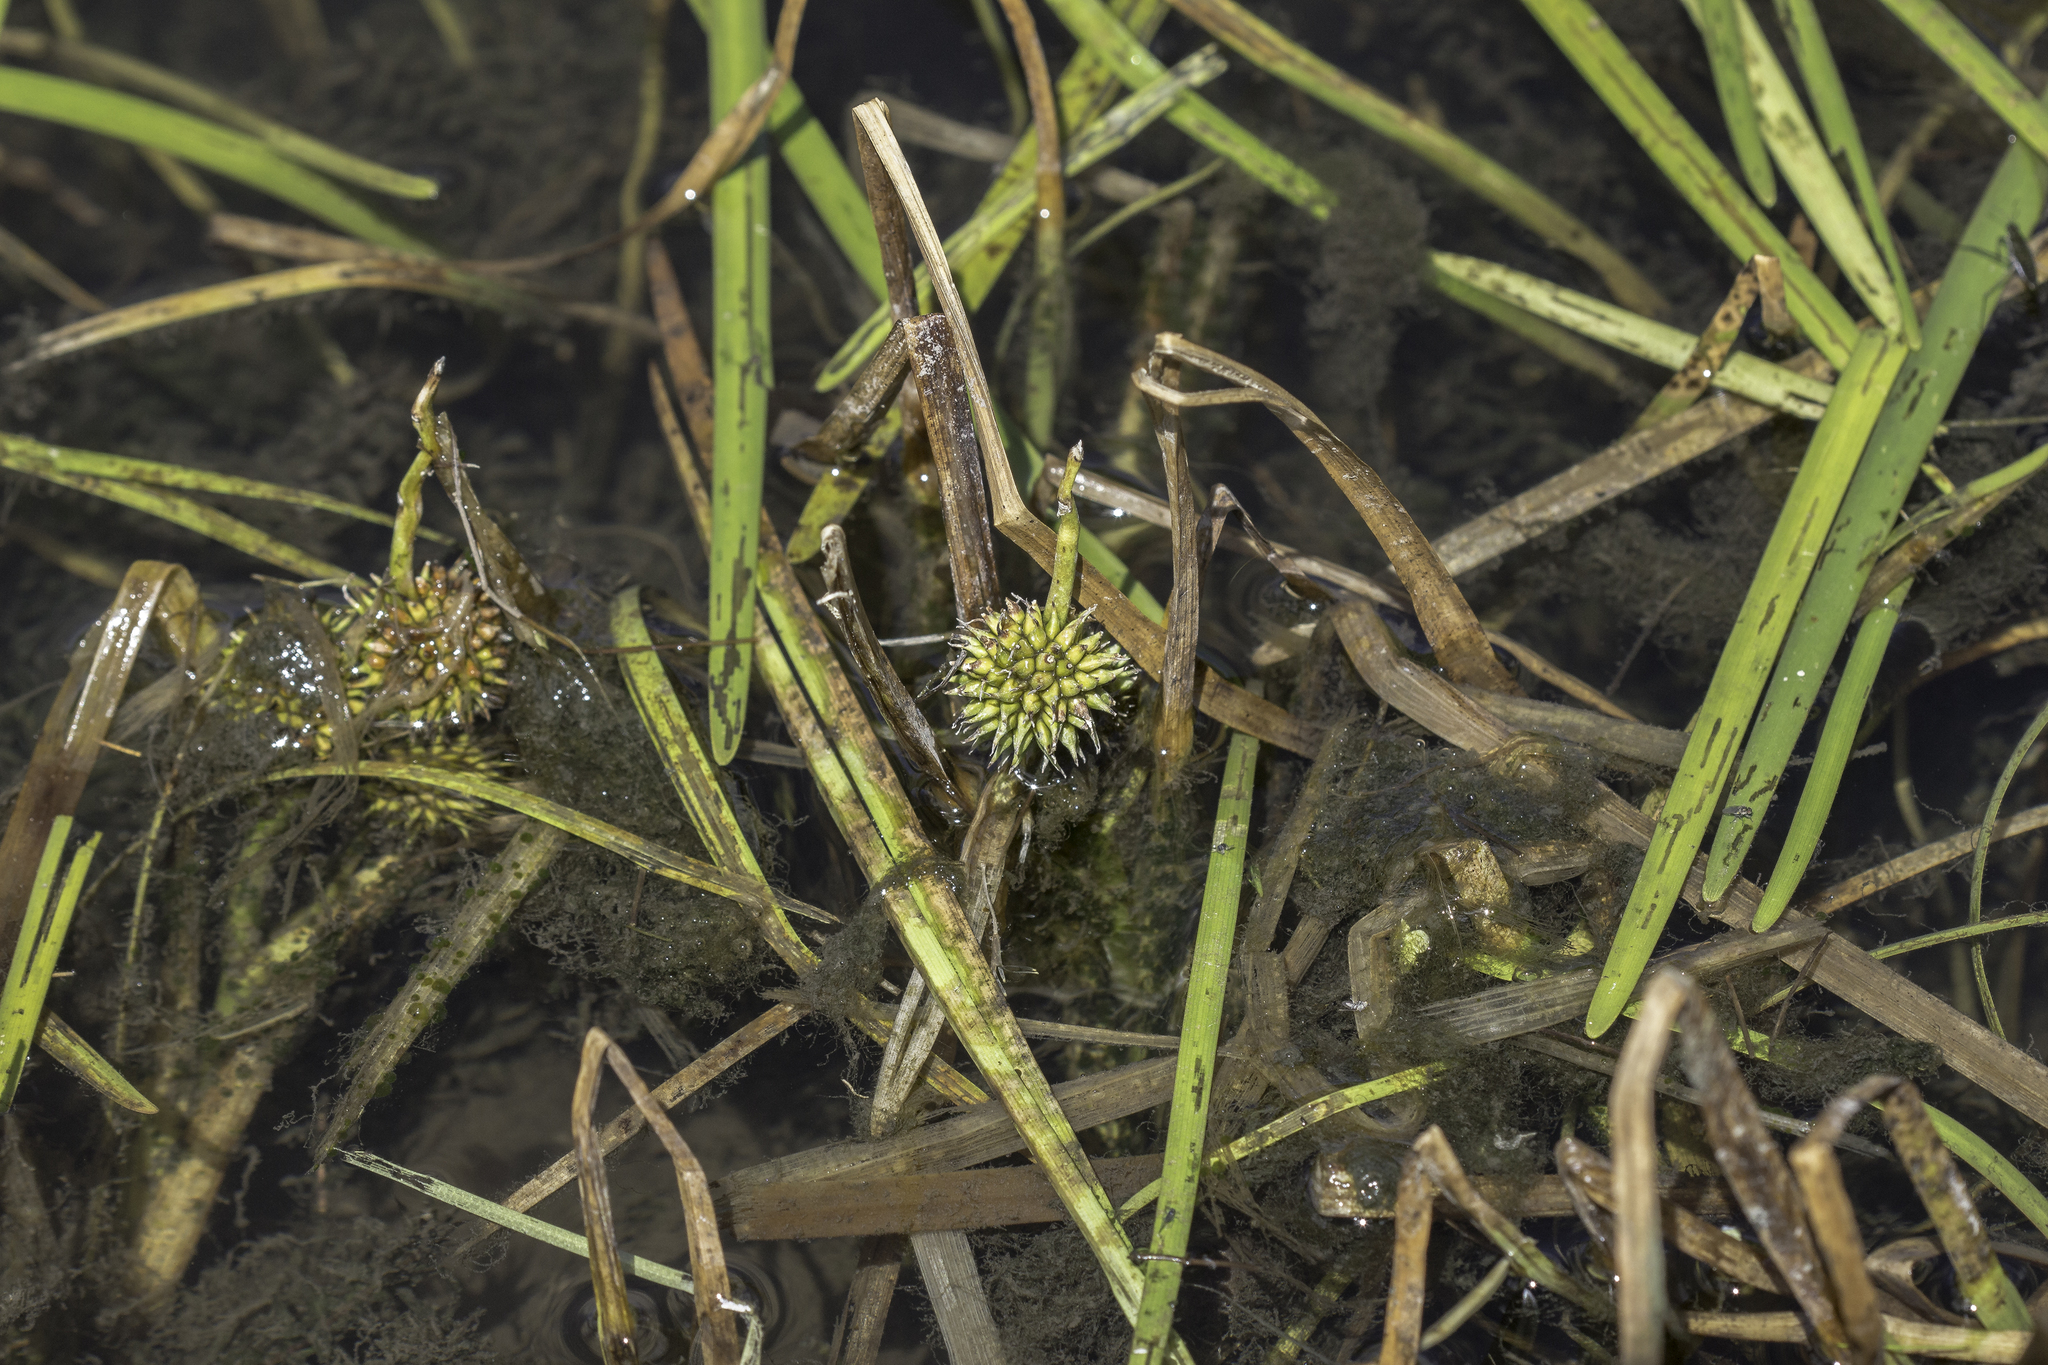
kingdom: Plantae
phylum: Tracheophyta
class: Liliopsida
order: Poales
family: Typhaceae
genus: Sparganium
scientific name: Sparganium angustifolium
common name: Floating bur-reed
